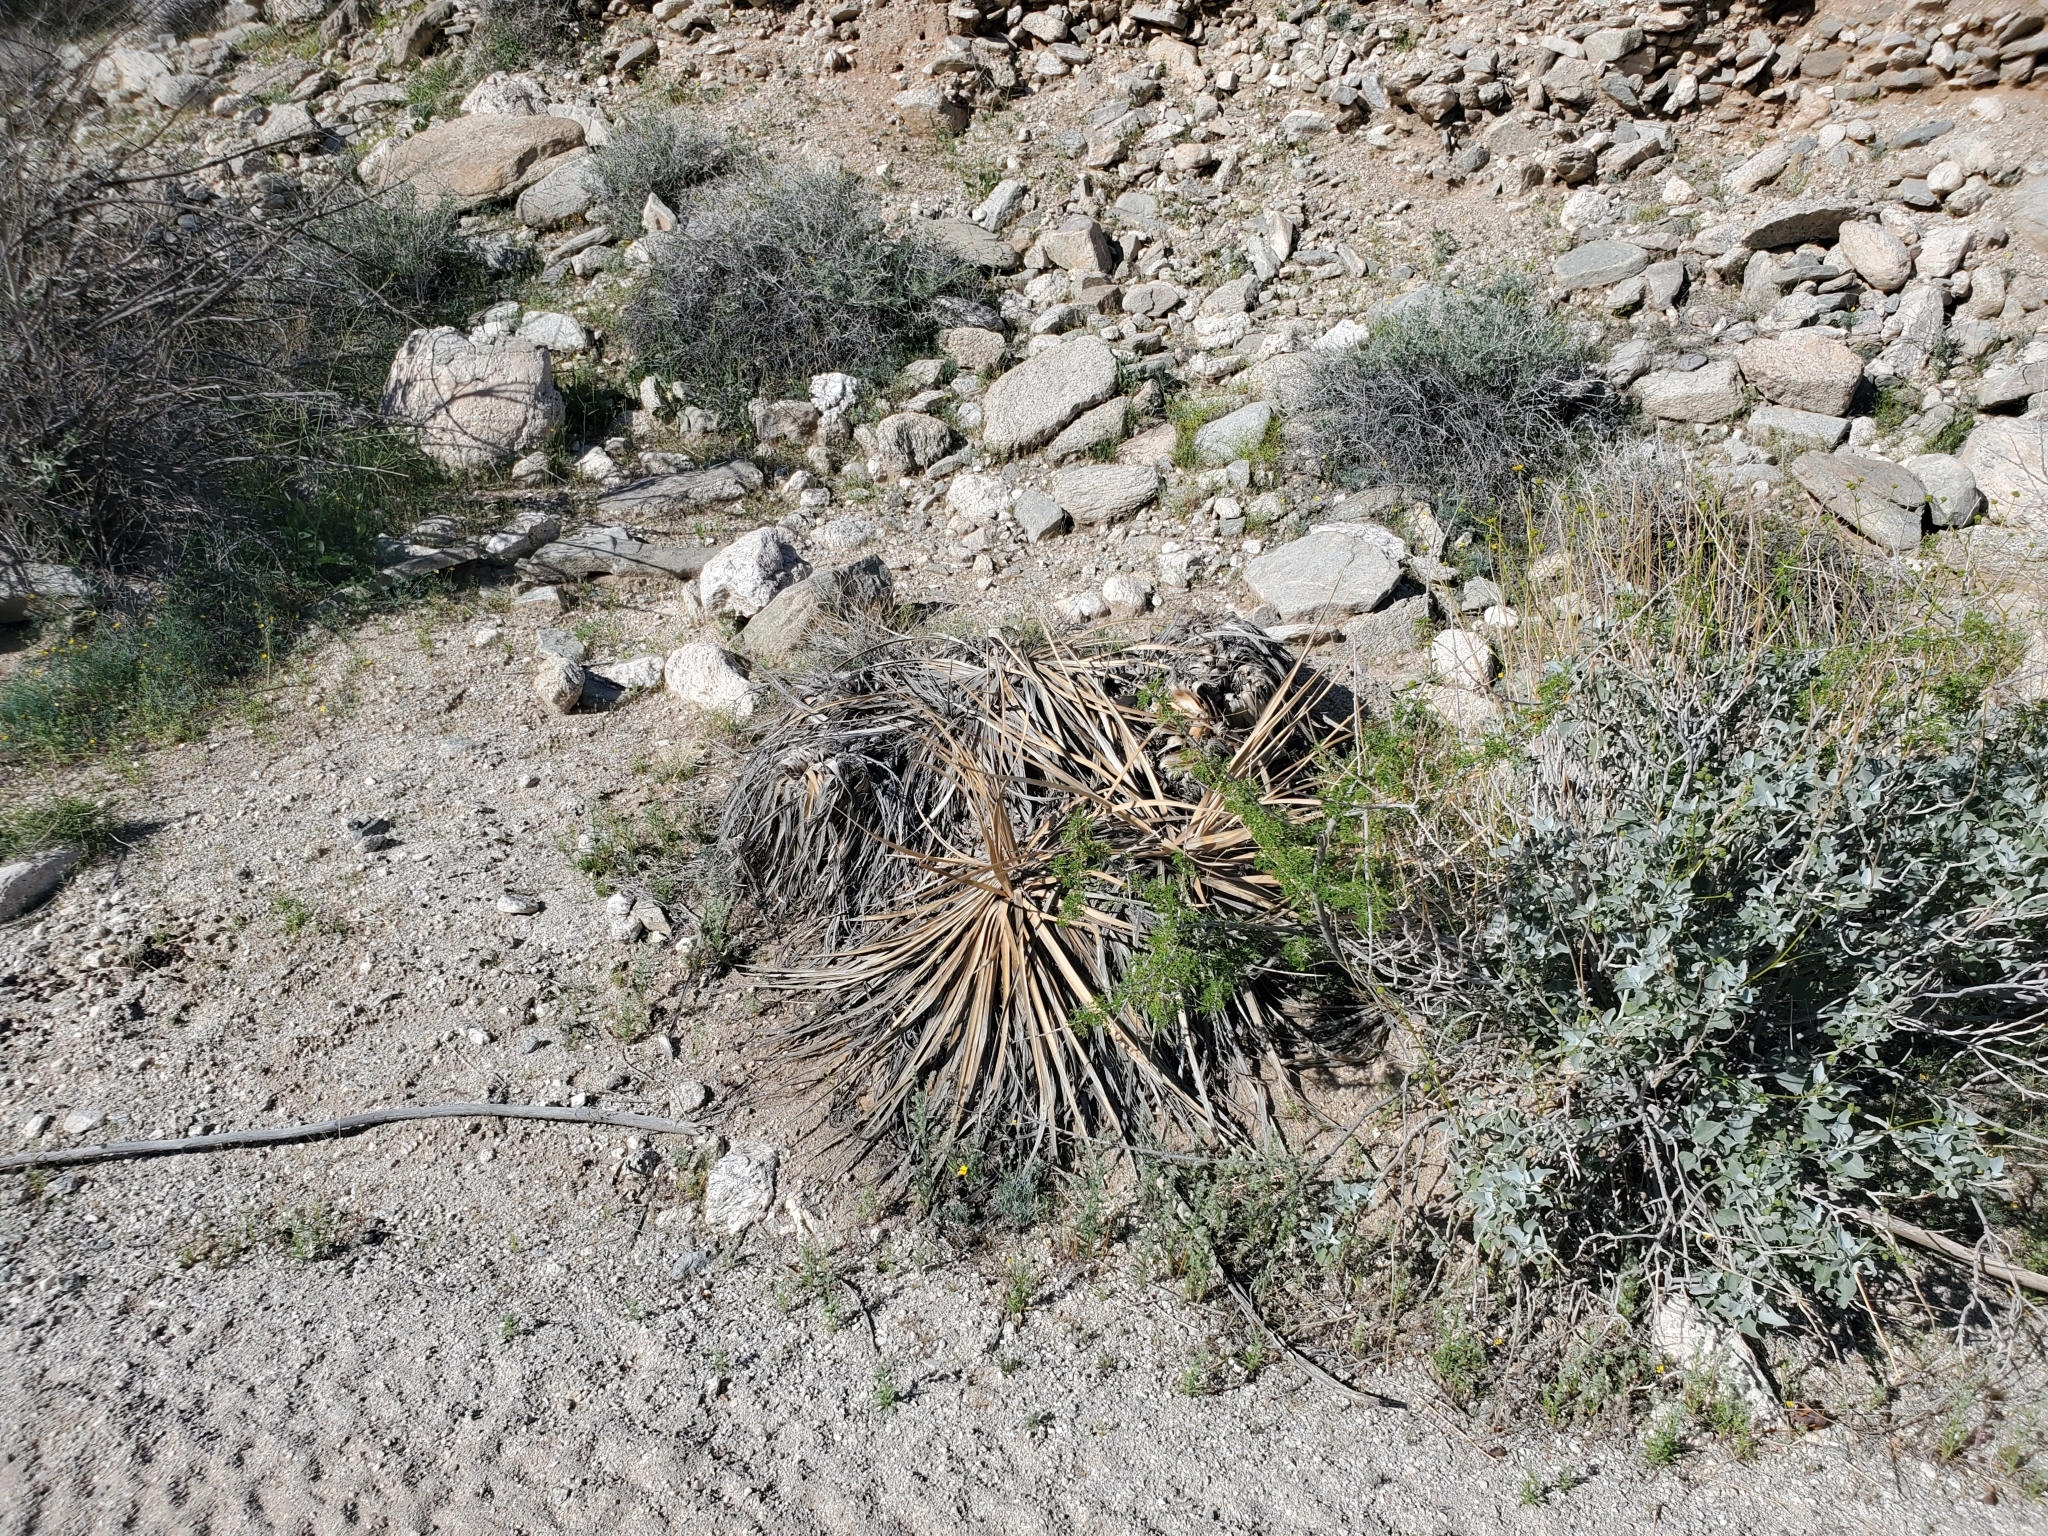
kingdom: Plantae
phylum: Tracheophyta
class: Liliopsida
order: Asparagales
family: Asparagaceae
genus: Nolina
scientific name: Nolina bigelovii
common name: Bigelow bear-grass
